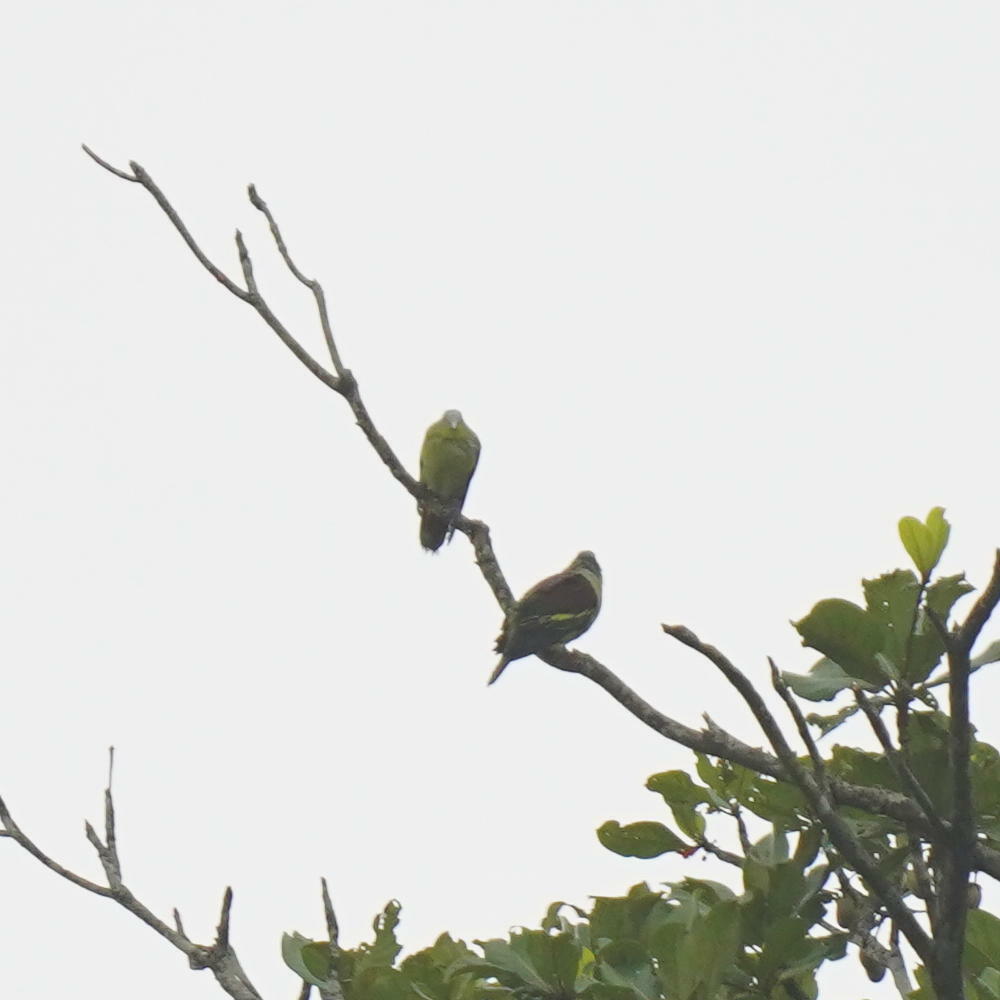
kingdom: Animalia
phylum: Chordata
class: Aves
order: Columbiformes
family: Columbidae
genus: Treron
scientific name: Treron affinis
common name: Grey-fronted green pigeon
